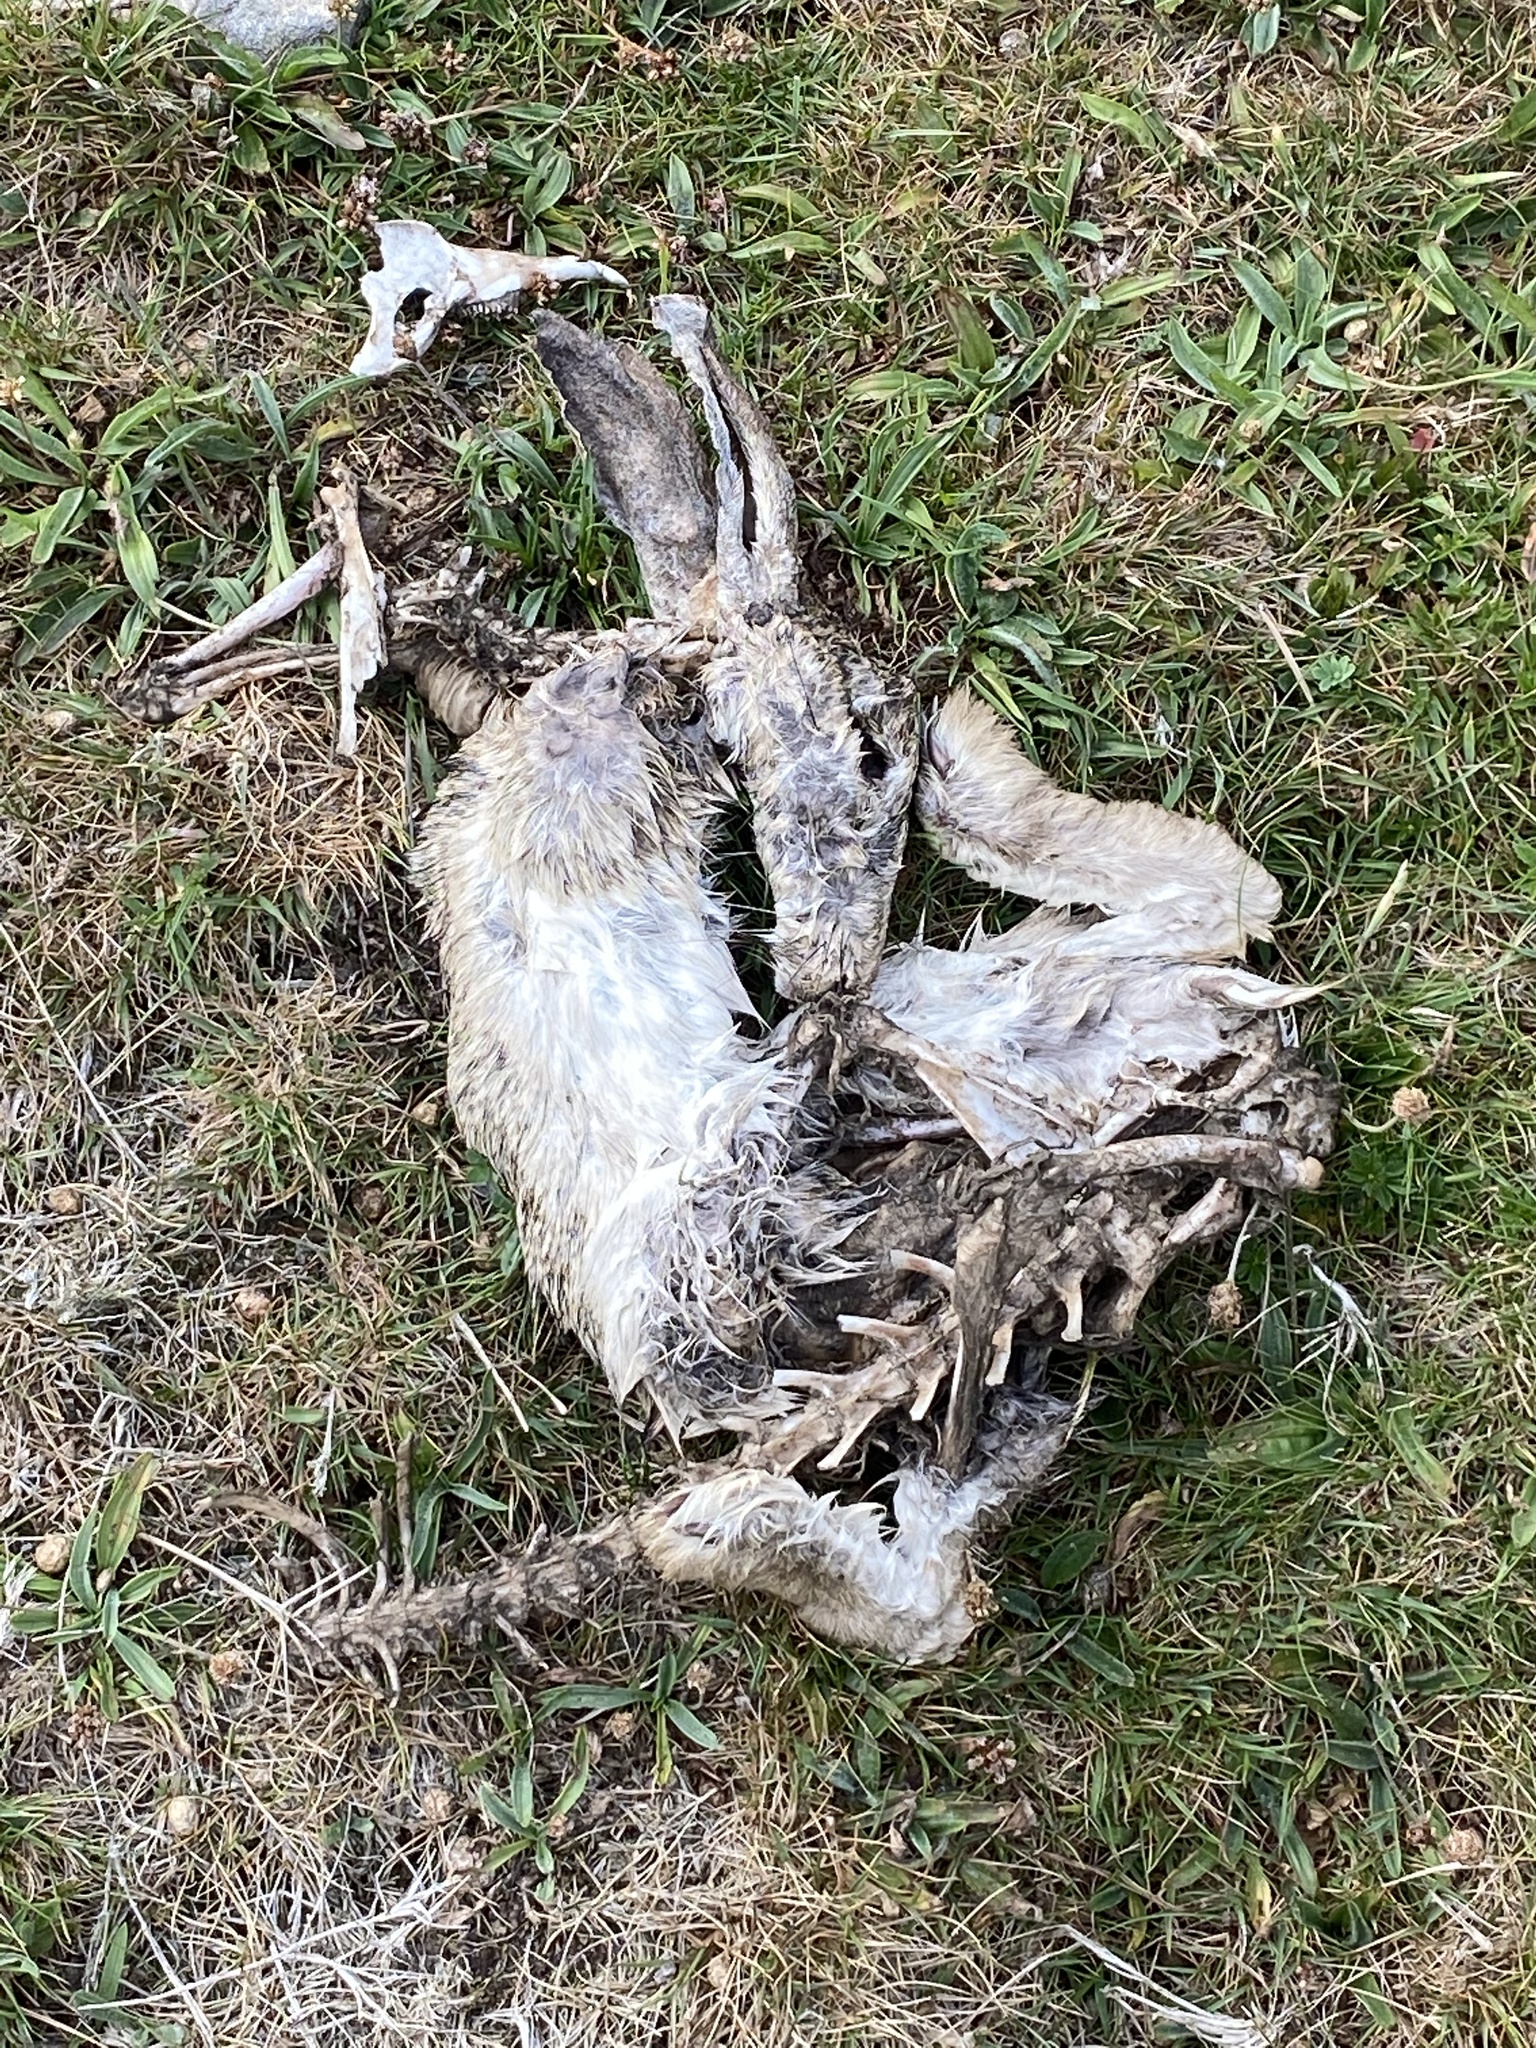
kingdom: Animalia
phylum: Chordata
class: Mammalia
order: Lagomorpha
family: Leporidae
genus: Oryctolagus
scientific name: Oryctolagus cuniculus
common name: European rabbit
